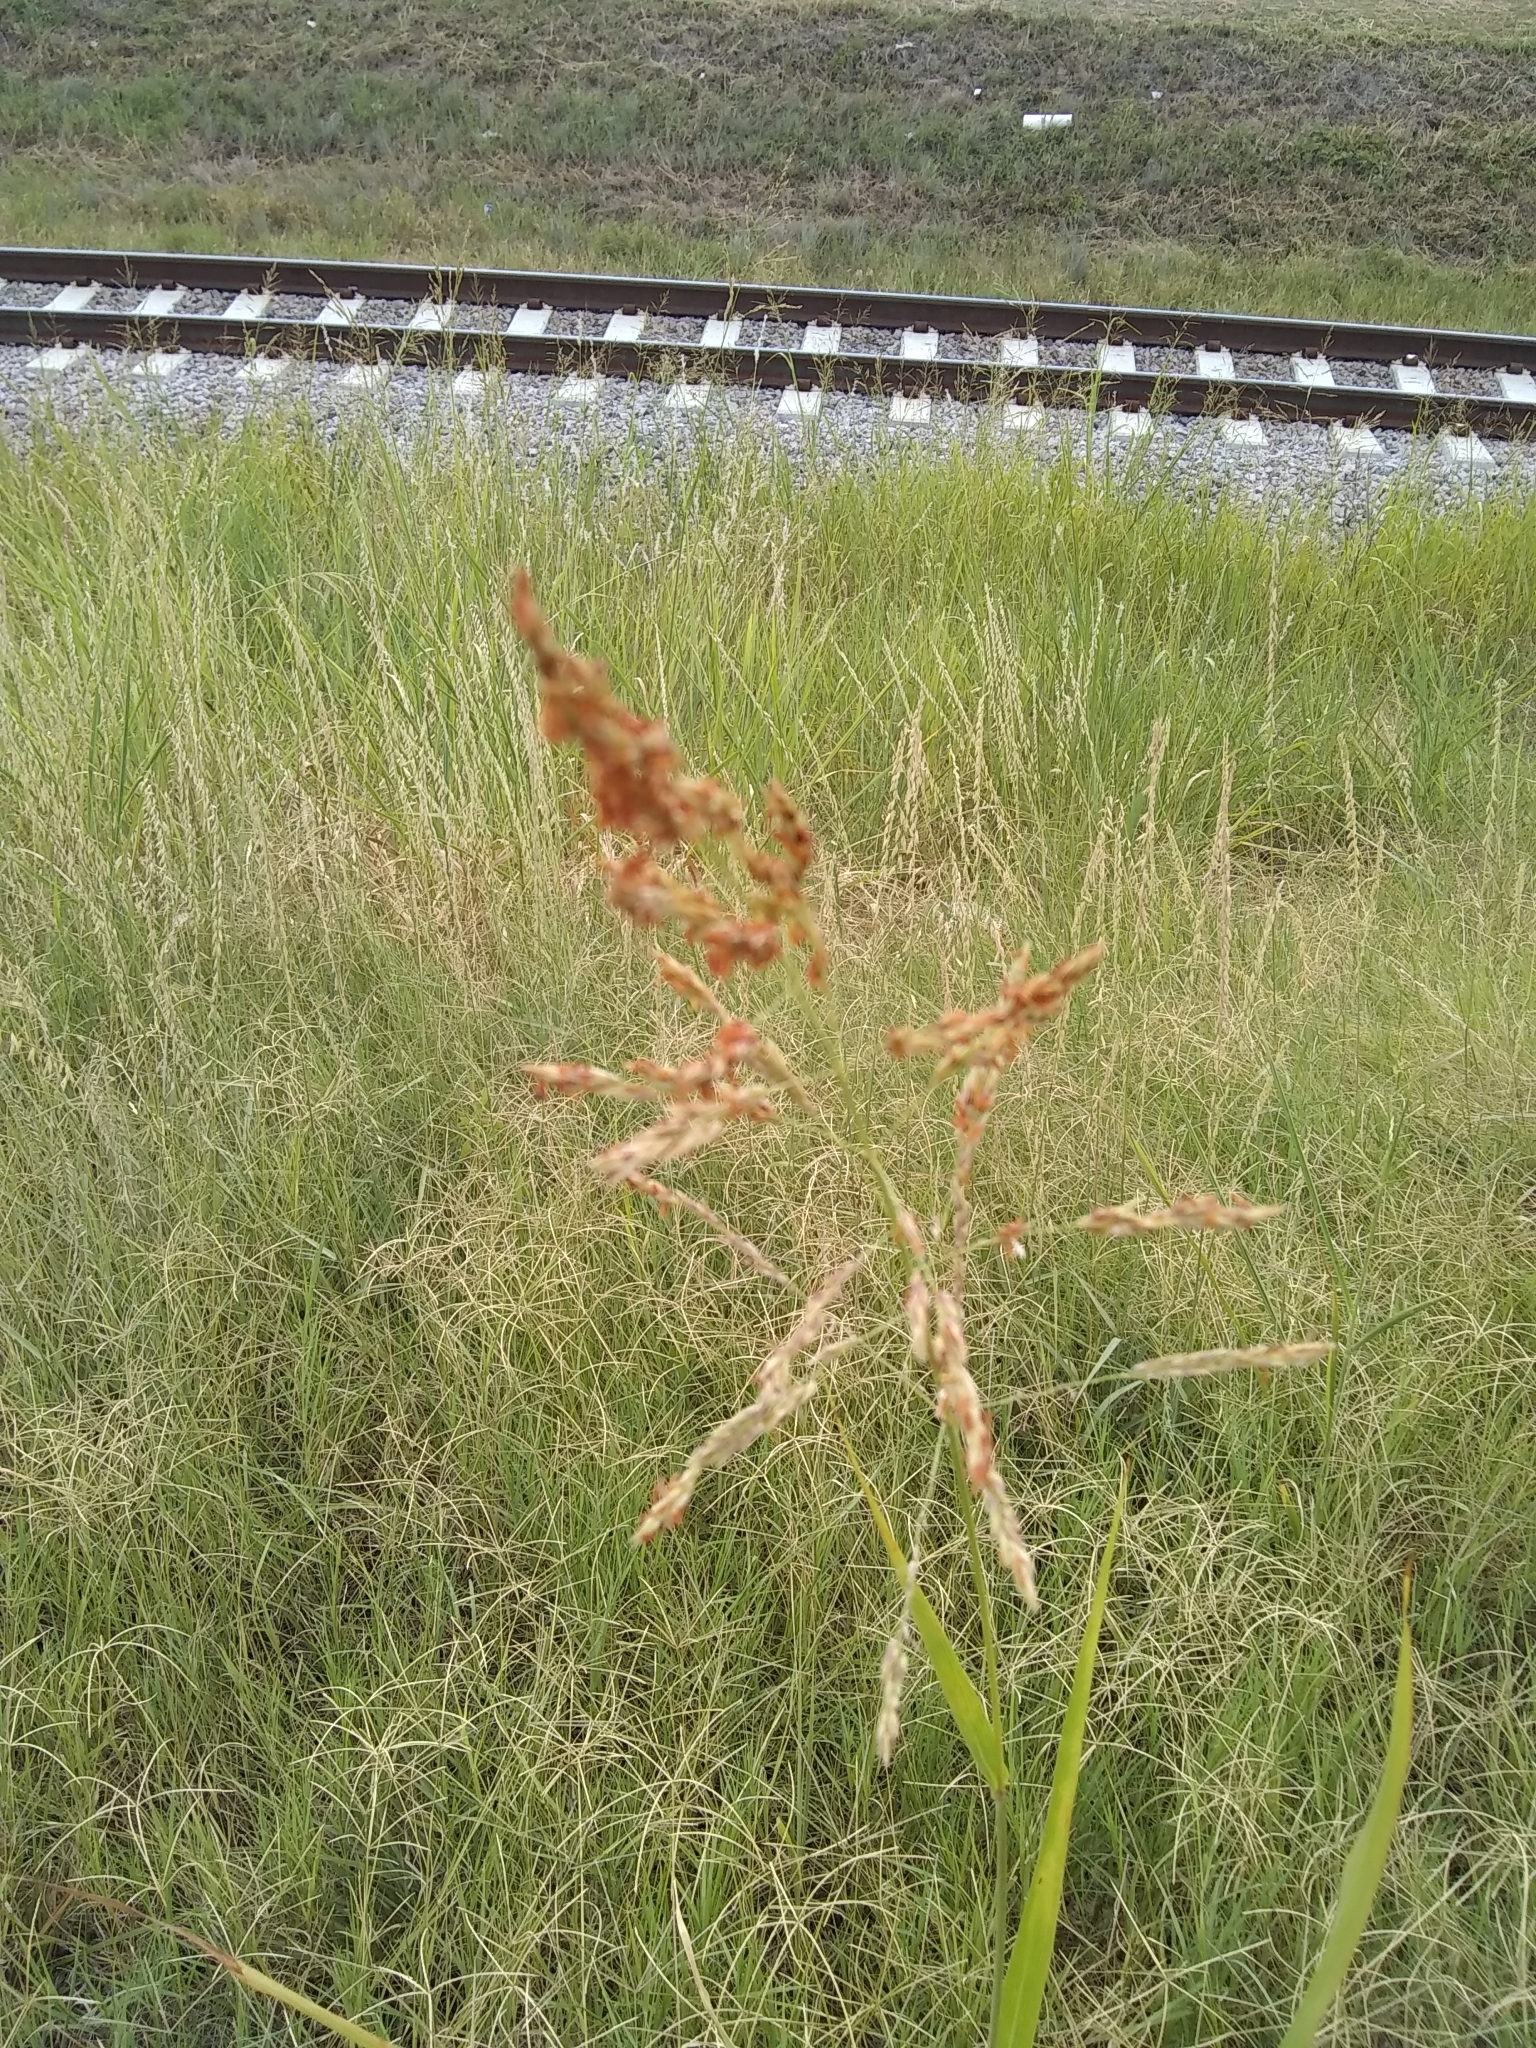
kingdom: Plantae
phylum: Tracheophyta
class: Liliopsida
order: Poales
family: Poaceae
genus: Sorghum
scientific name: Sorghum halepense
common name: Johnson-grass
